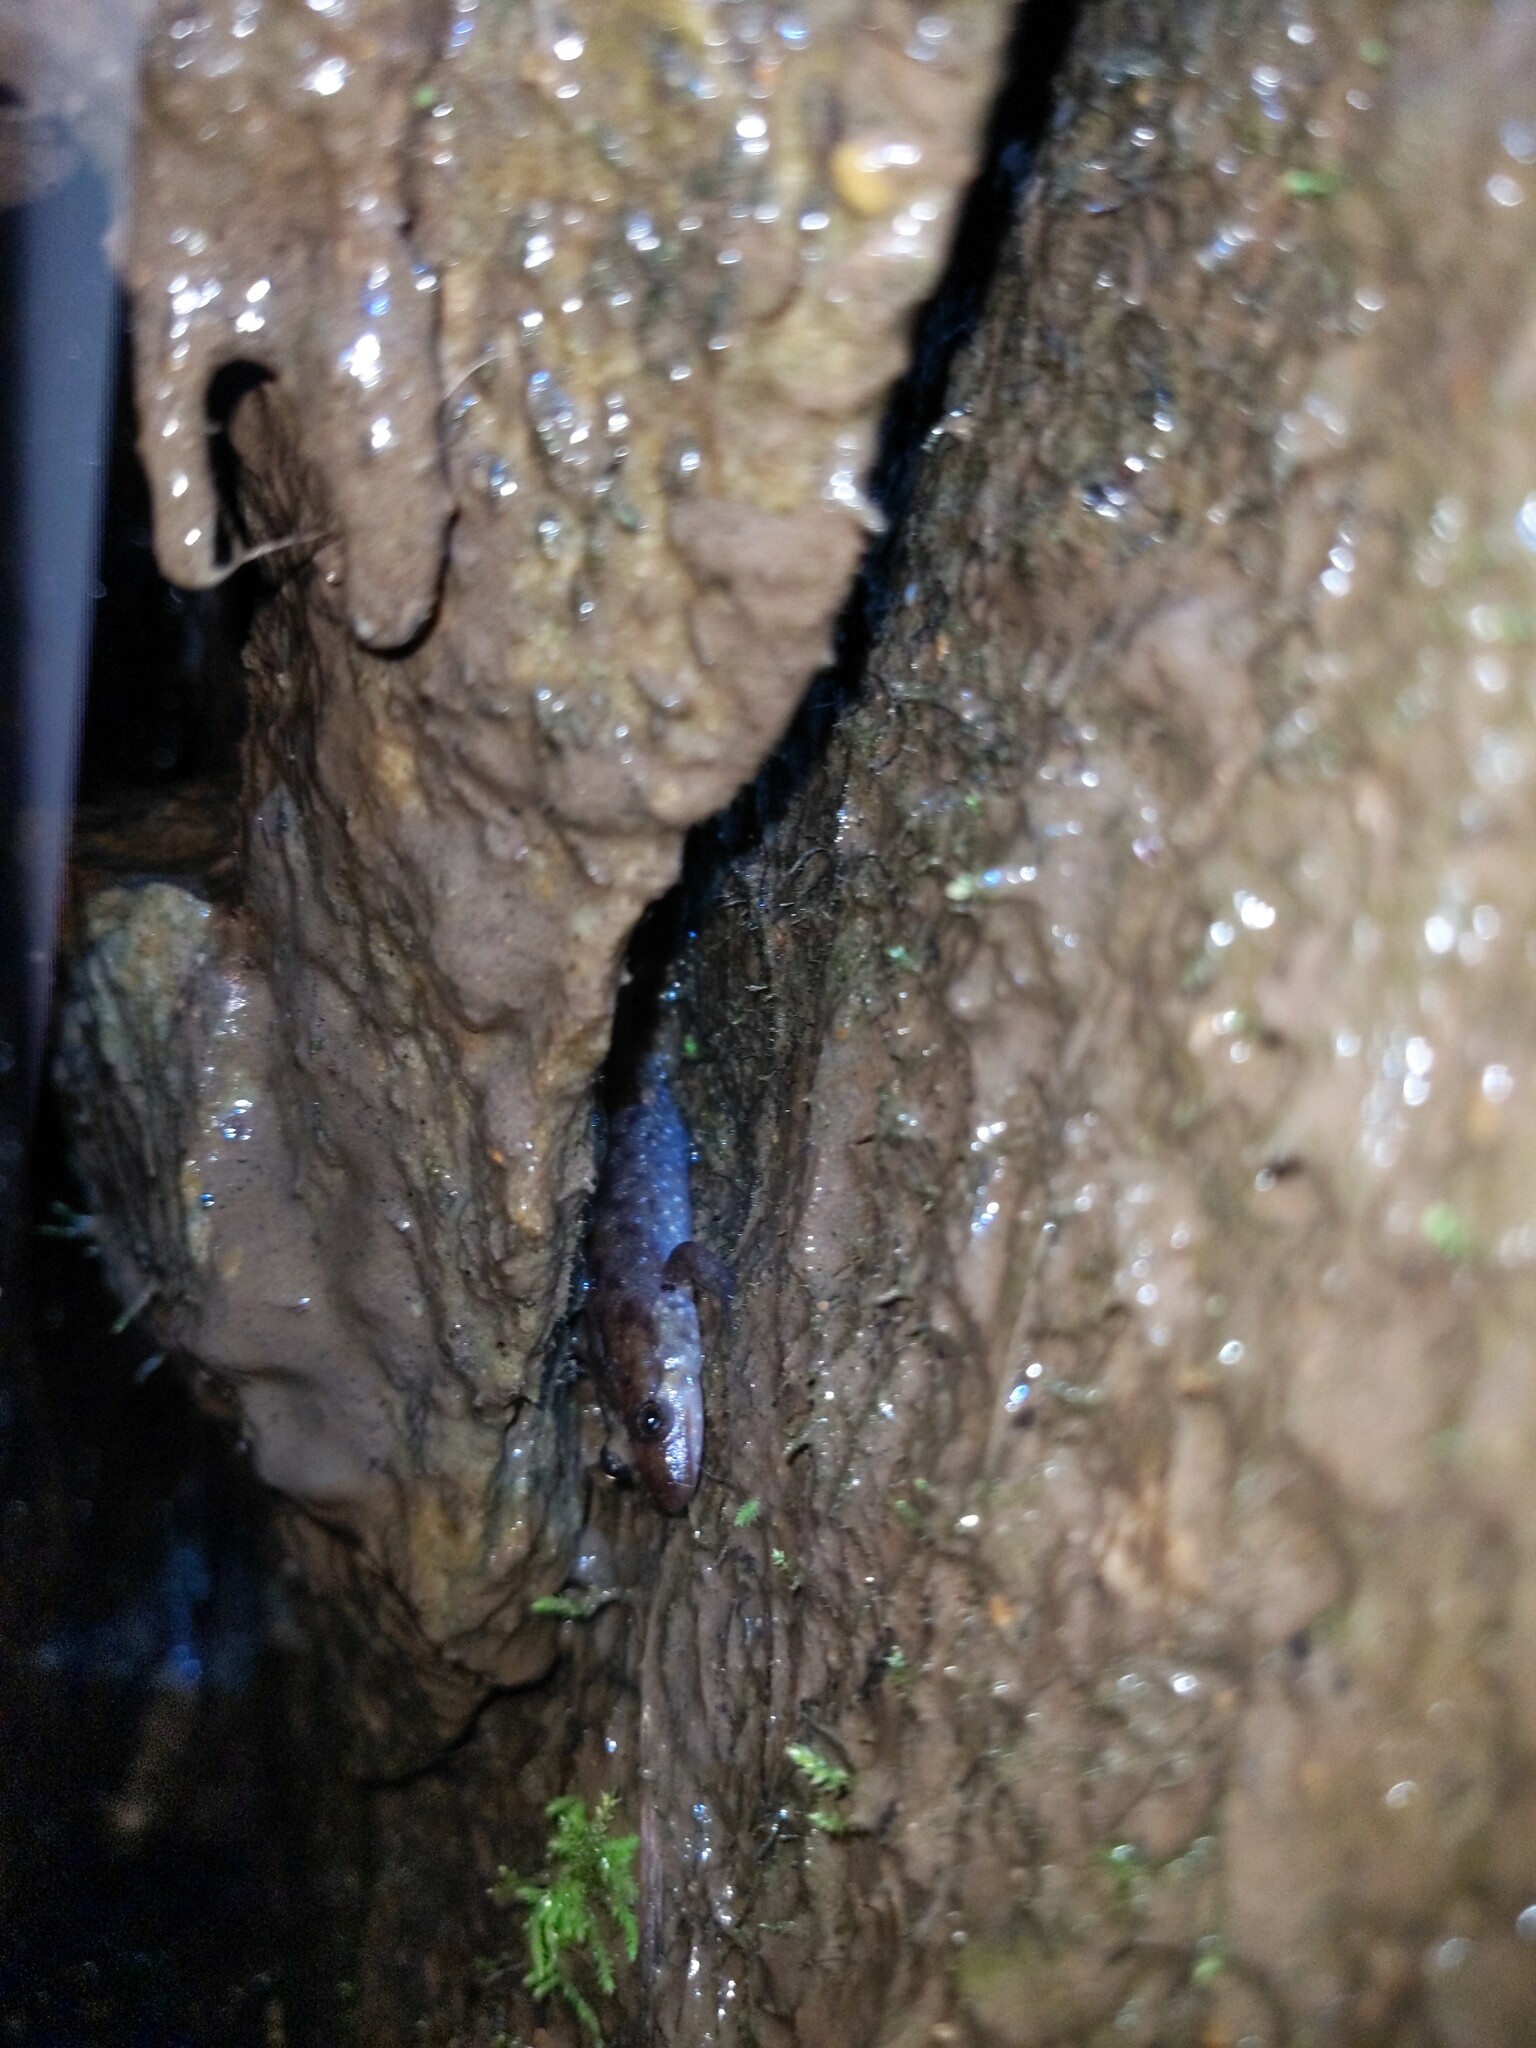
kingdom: Animalia
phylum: Chordata
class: Amphibia
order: Caudata
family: Plethodontidae
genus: Desmognathus
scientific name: Desmognathus monticola
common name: Seal salamander
